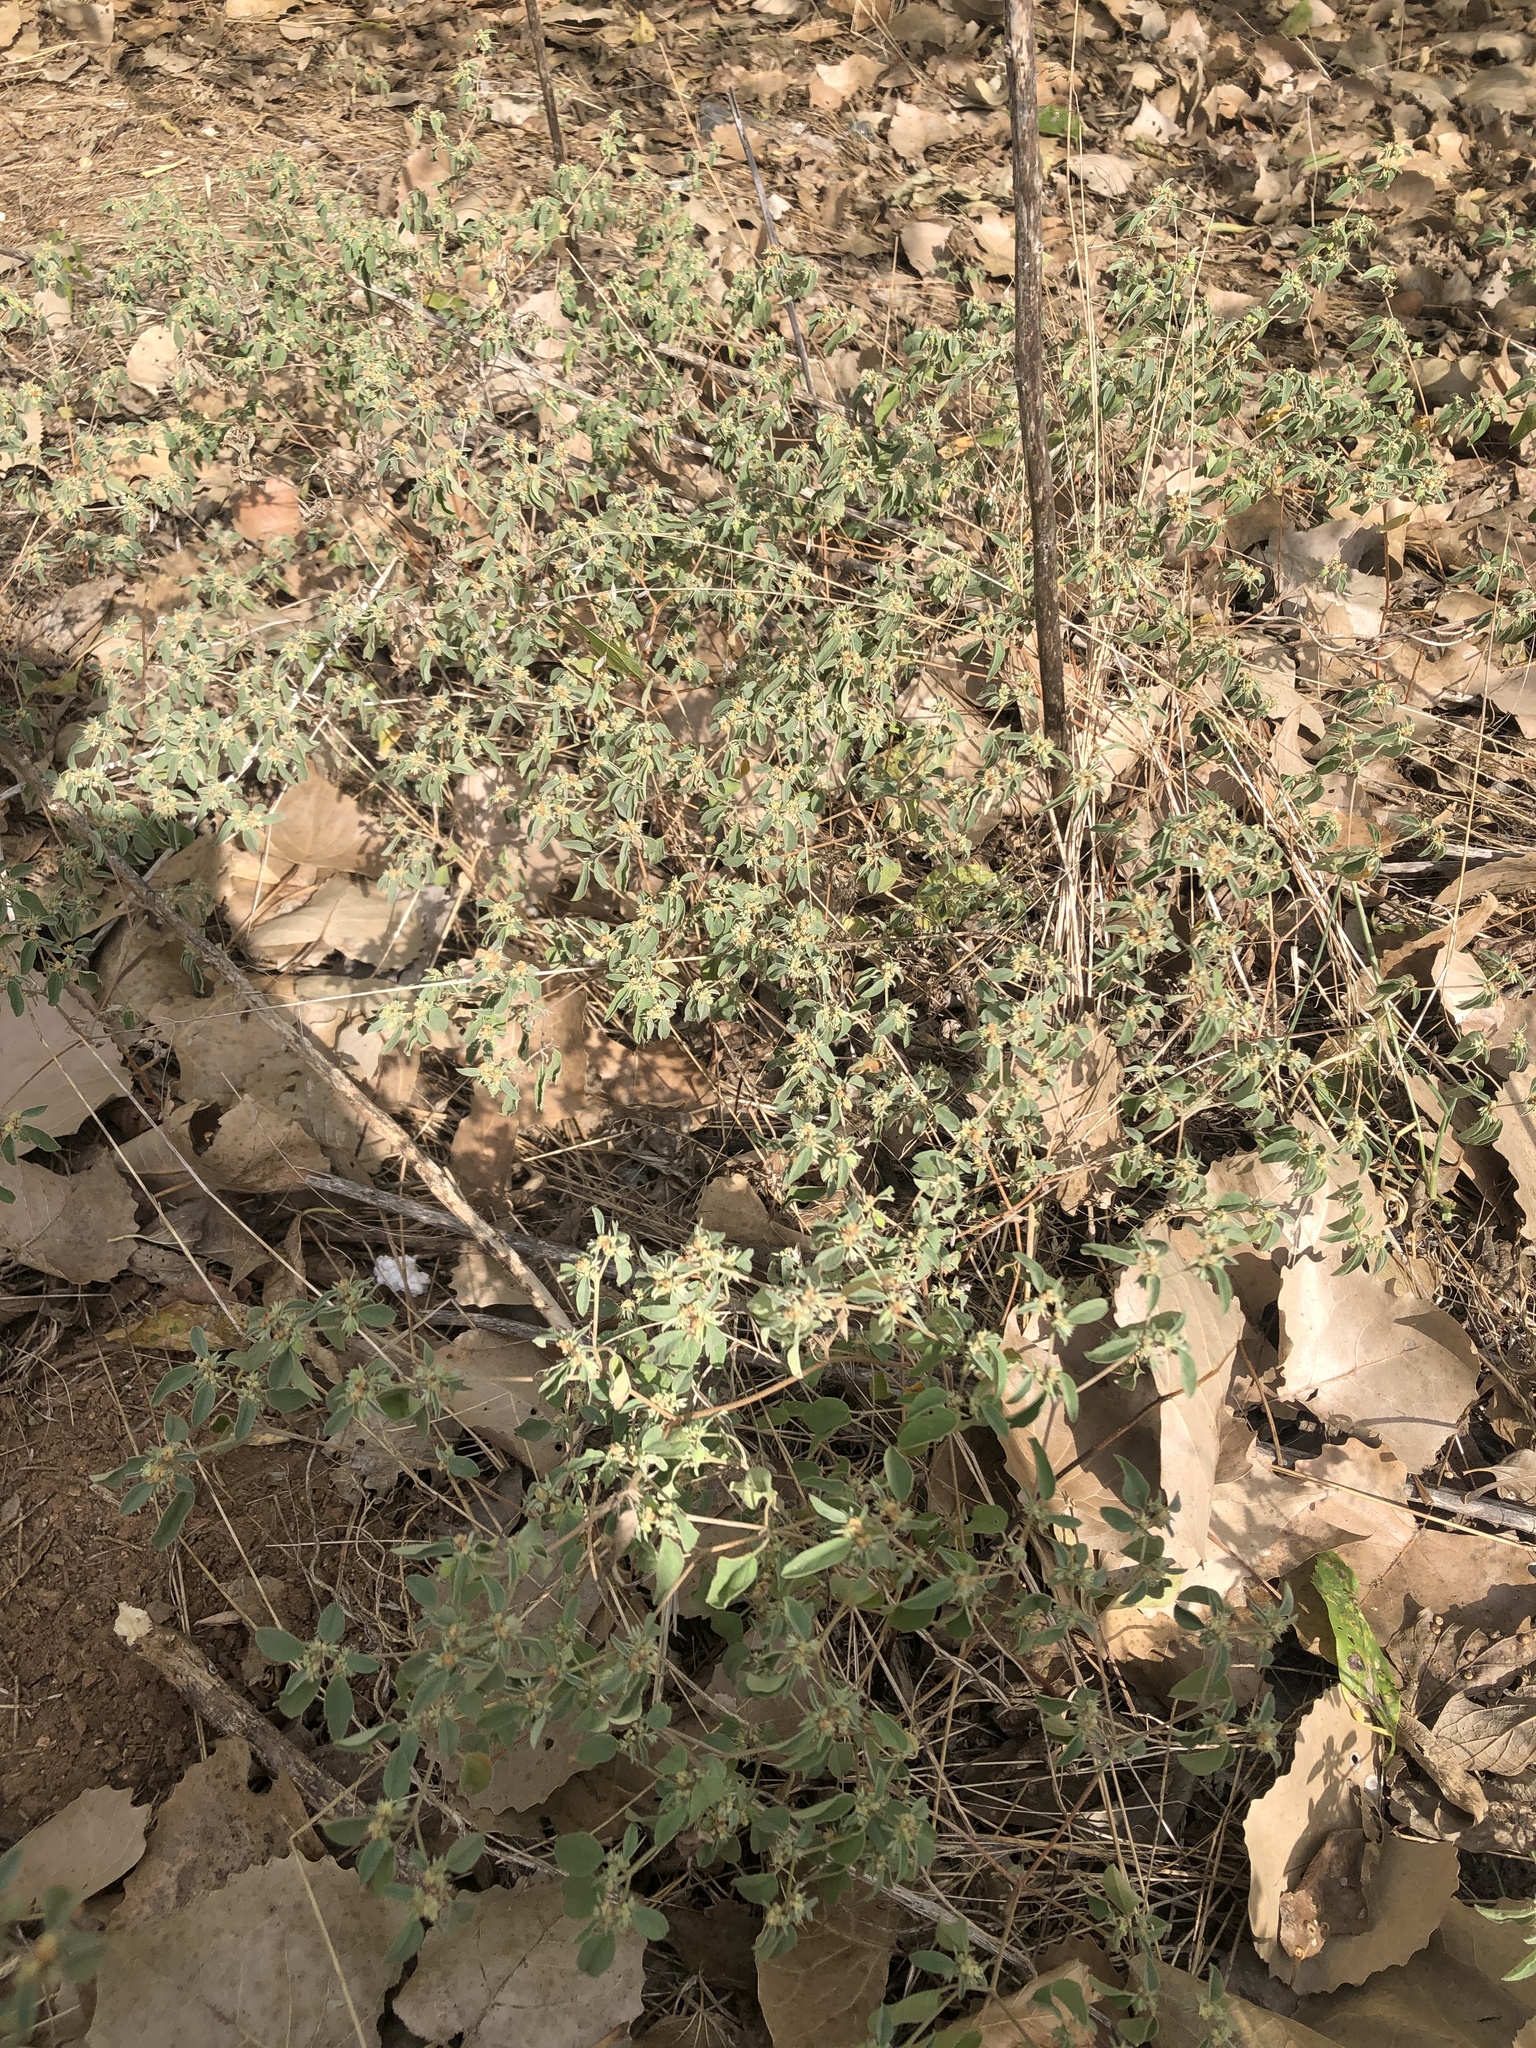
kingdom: Plantae
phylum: Tracheophyta
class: Magnoliopsida
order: Malpighiales
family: Euphorbiaceae
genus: Croton
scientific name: Croton monanthogynus
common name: One-seed croton
